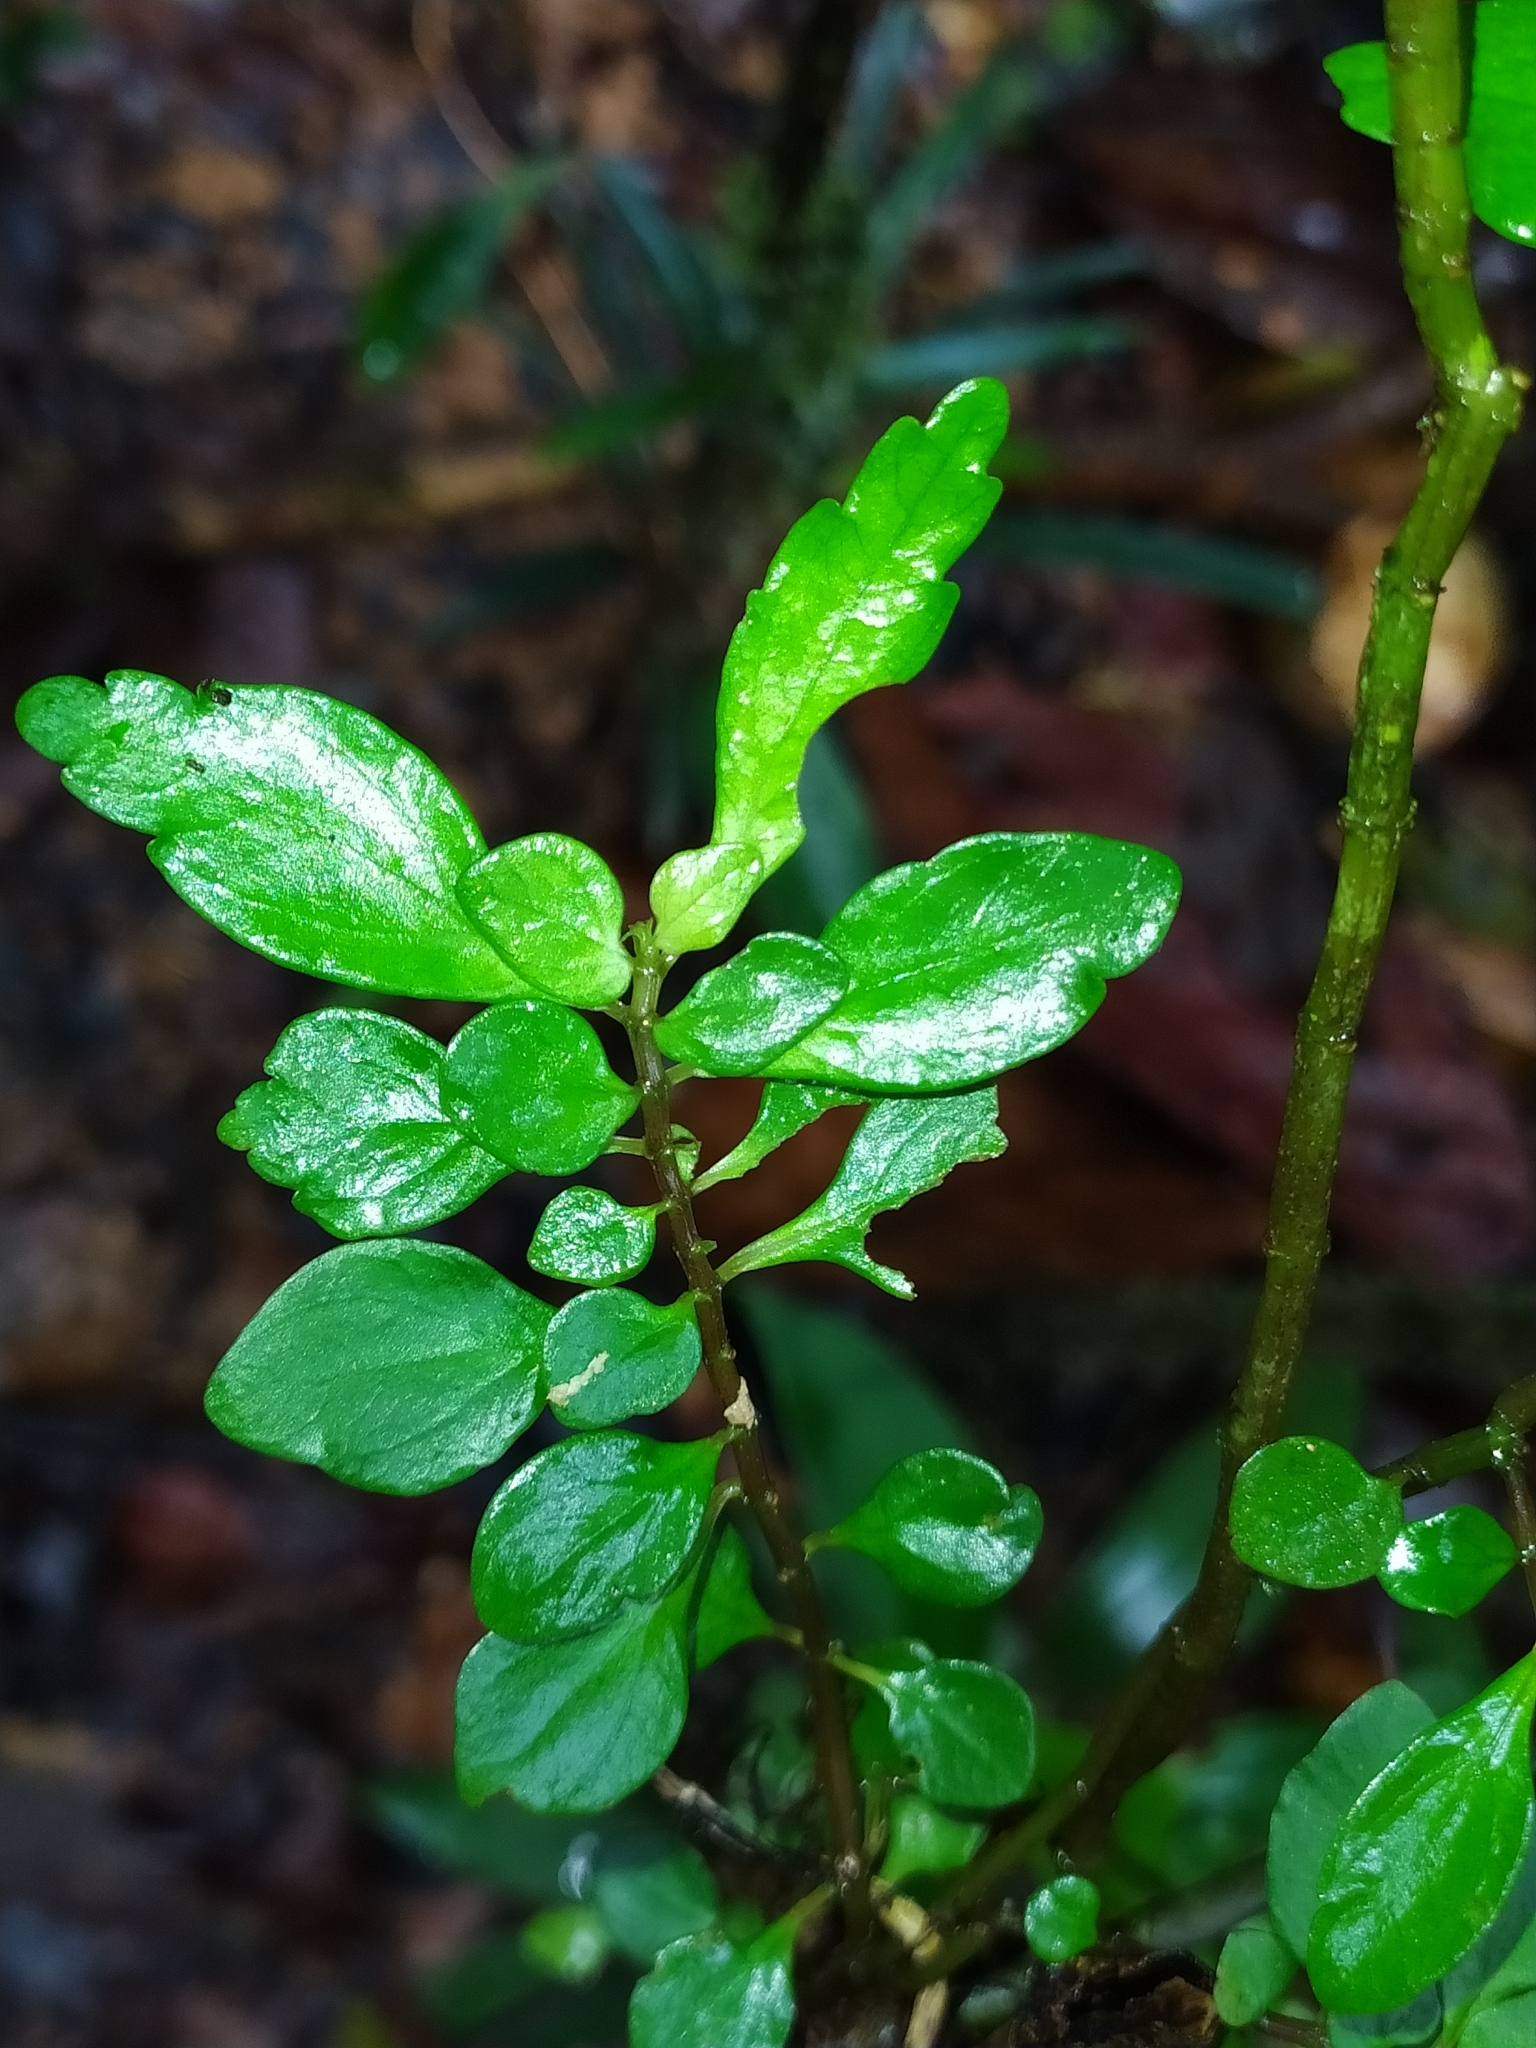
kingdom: Plantae
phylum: Tracheophyta
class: Magnoliopsida
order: Rosales
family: Urticaceae
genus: Pilea
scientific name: Pilea imparifolia
